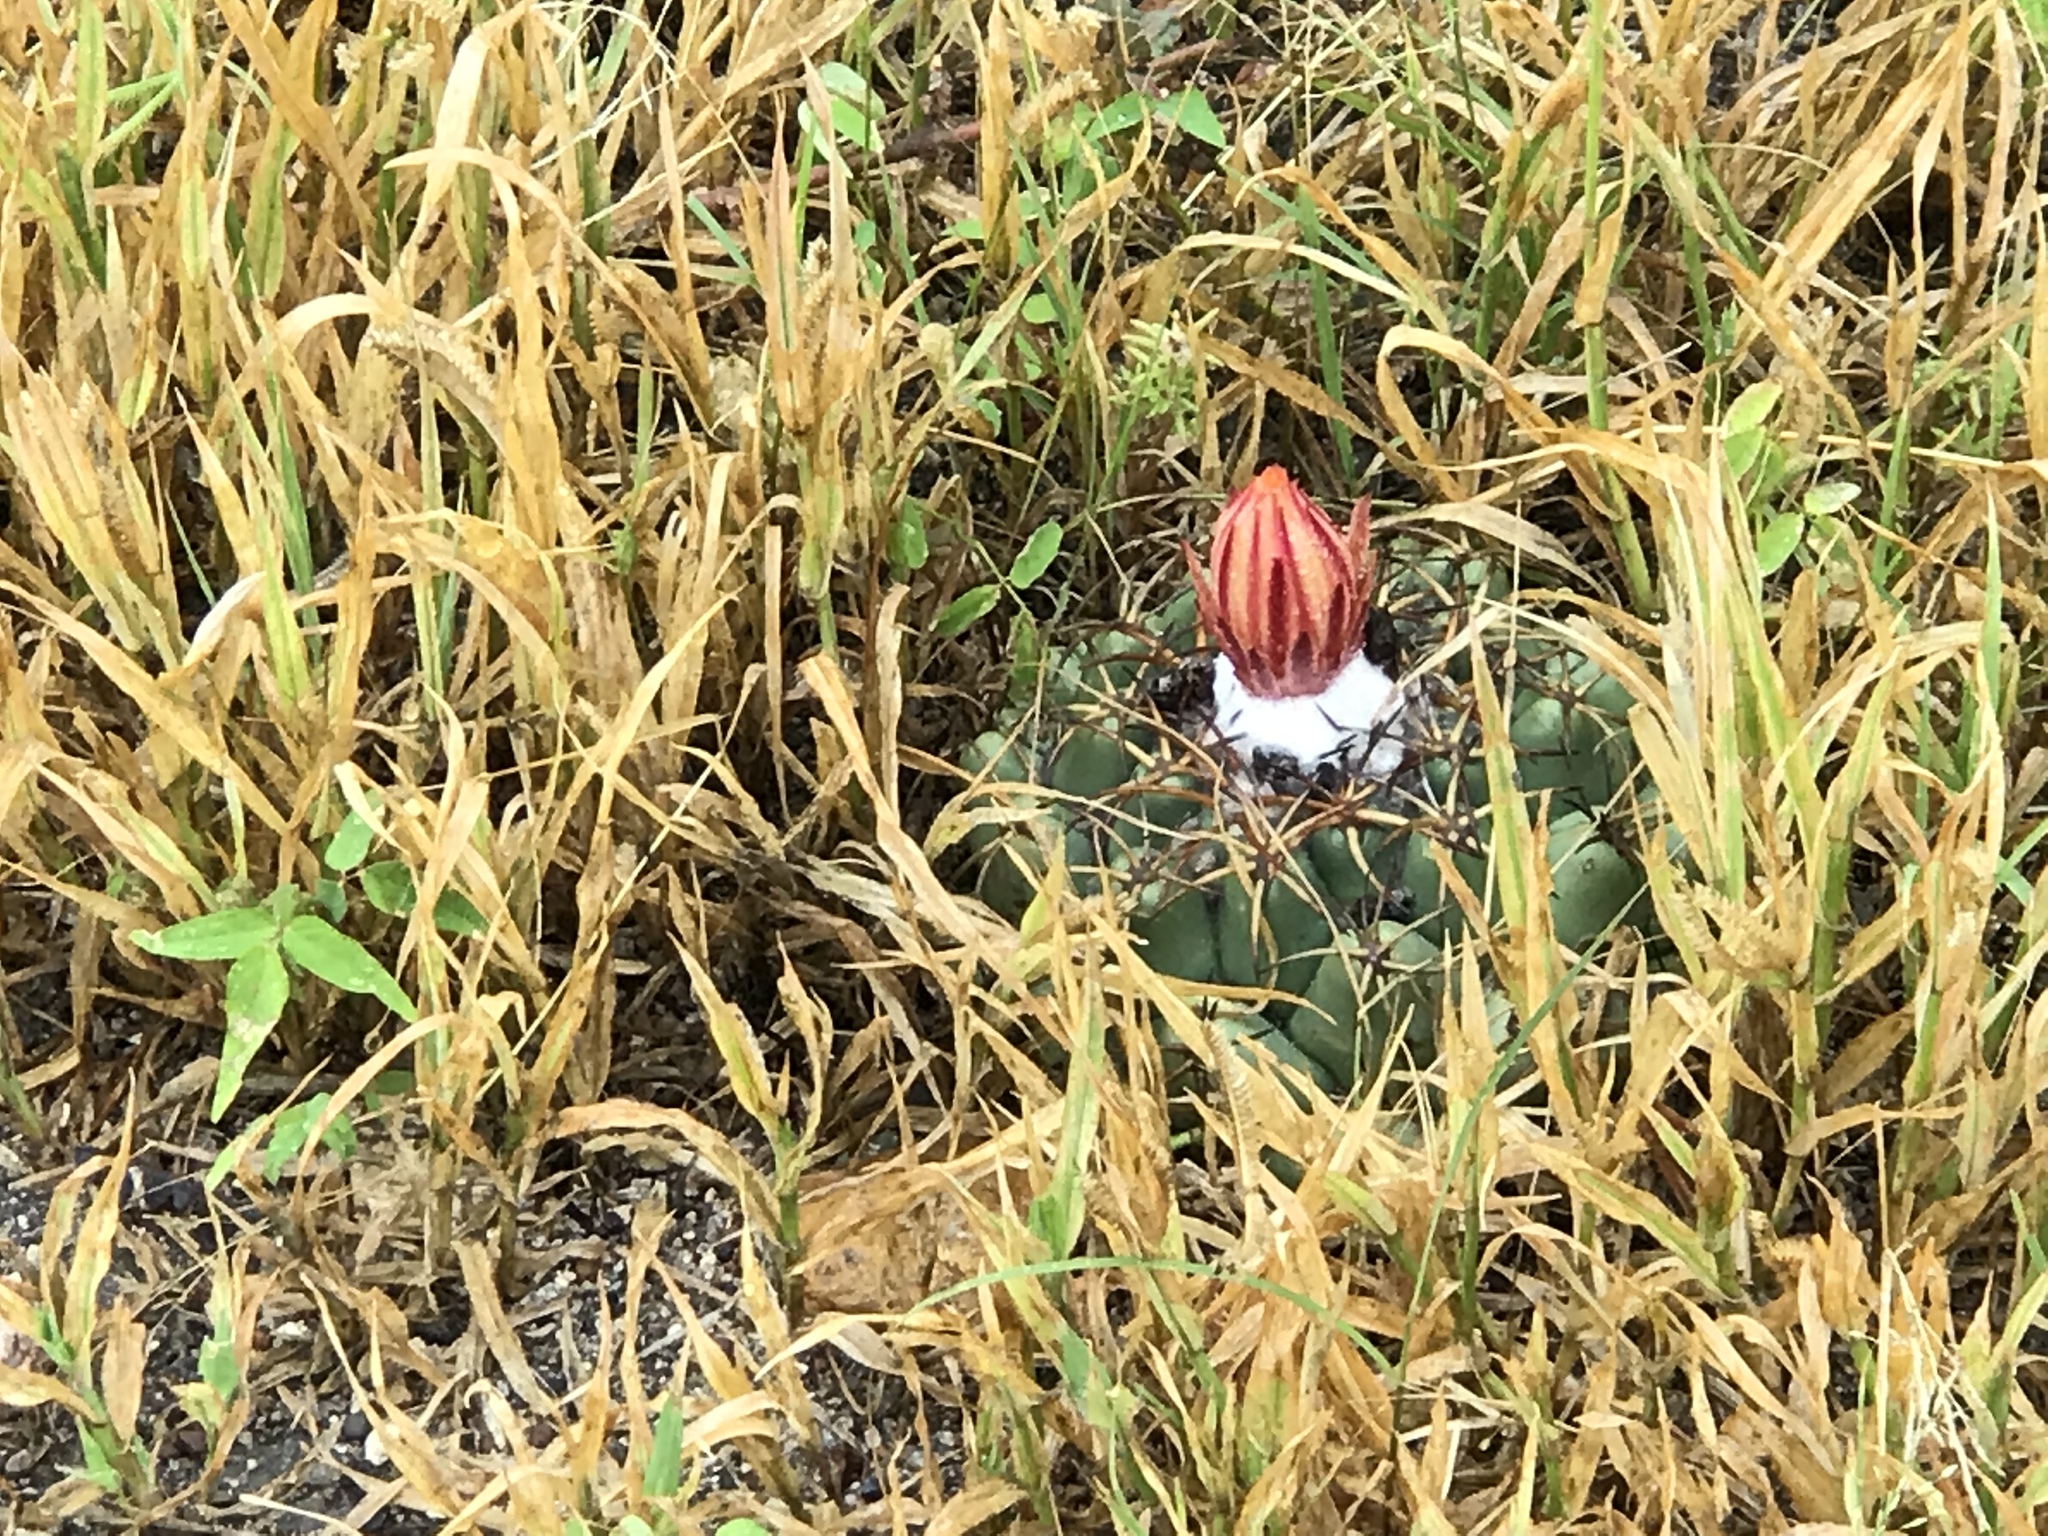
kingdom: Plantae
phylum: Tracheophyta
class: Magnoliopsida
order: Caryophyllales
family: Cactaceae
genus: Coryphantha
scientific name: Coryphantha elephantidens
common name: Elephant's tooth
